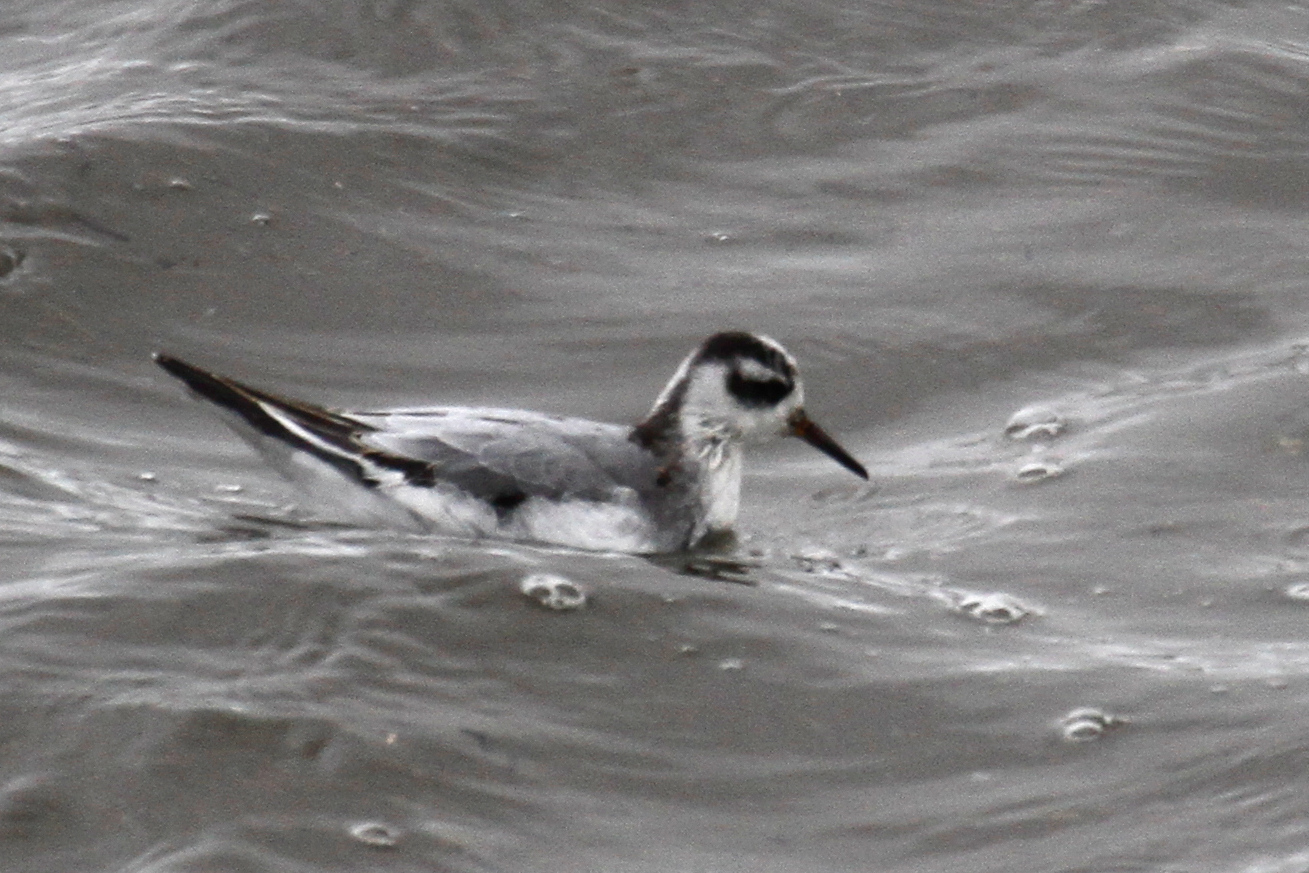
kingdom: Animalia
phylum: Chordata
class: Aves
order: Charadriiformes
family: Scolopacidae
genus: Phalaropus
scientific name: Phalaropus fulicarius
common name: Red phalarope
